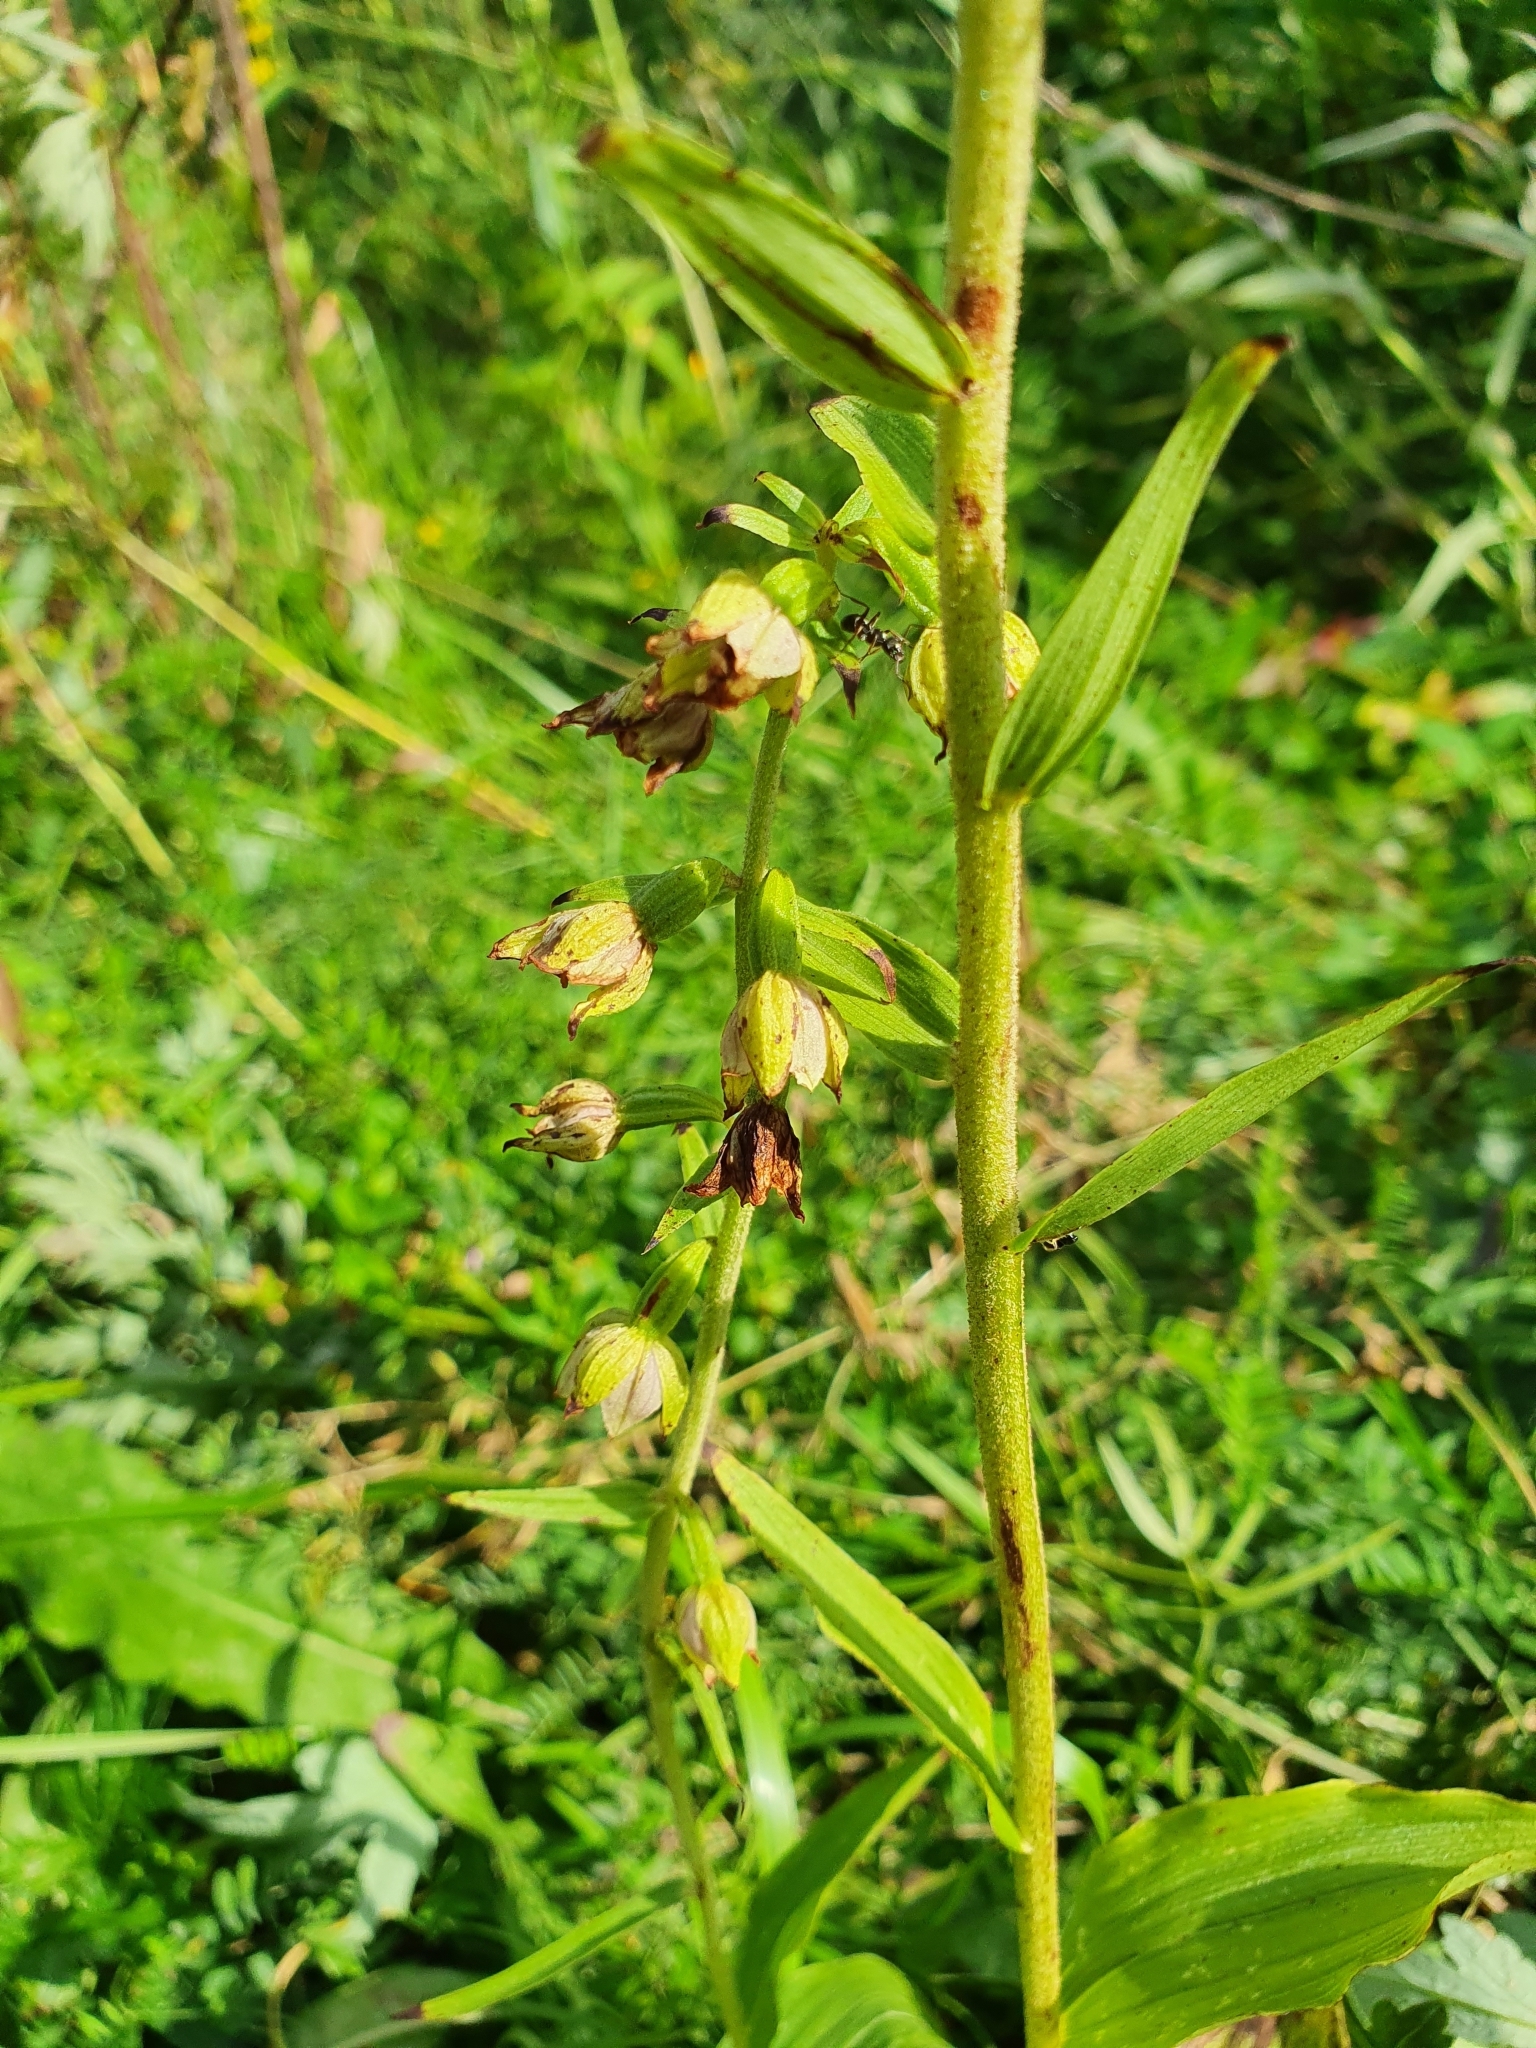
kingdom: Plantae
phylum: Tracheophyta
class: Liliopsida
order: Asparagales
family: Orchidaceae
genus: Epipactis
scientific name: Epipactis helleborine
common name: Broad-leaved helleborine
